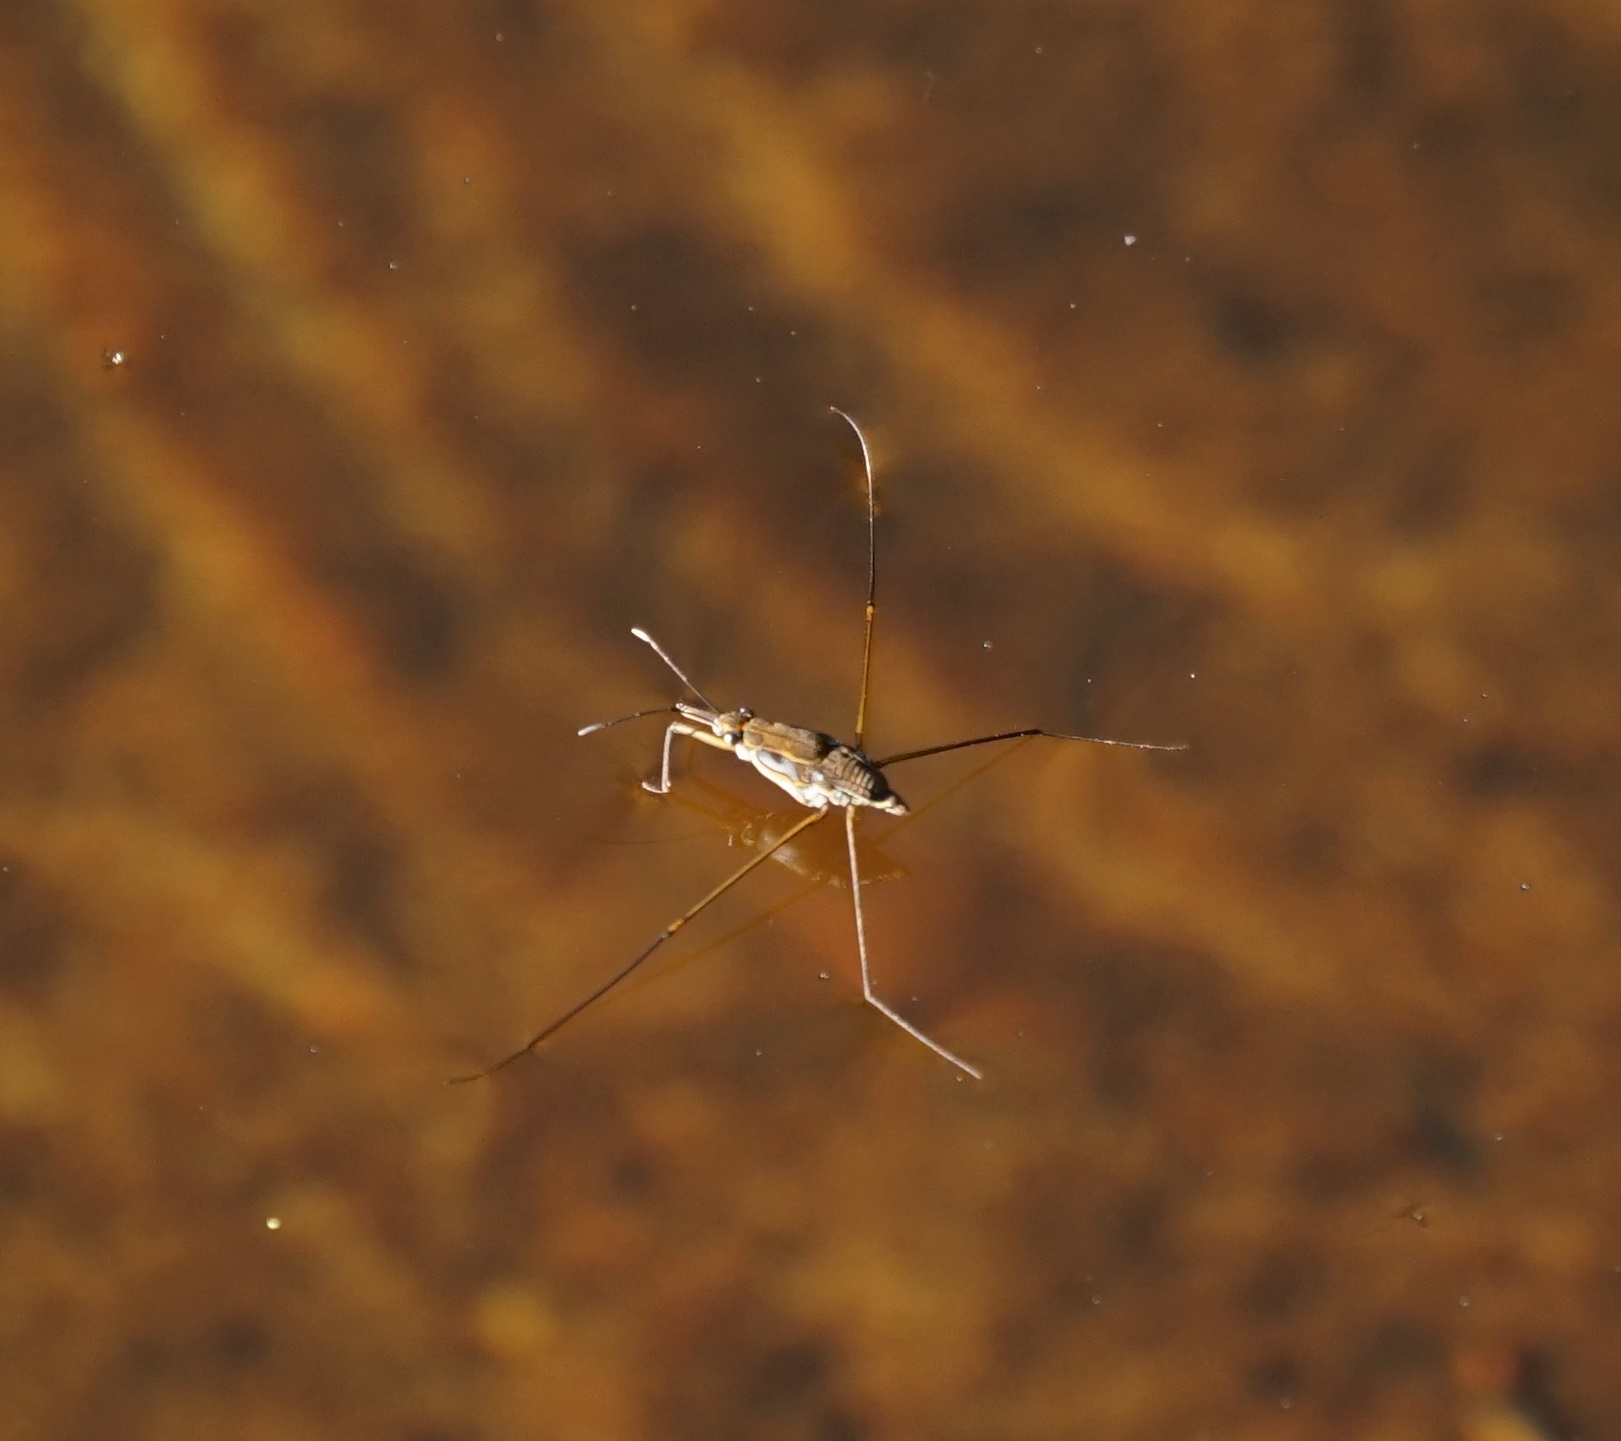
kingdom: Animalia
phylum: Arthropoda
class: Insecta
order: Hemiptera
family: Gerridae
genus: Tenagogerris
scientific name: Tenagogerris euphrosyne
